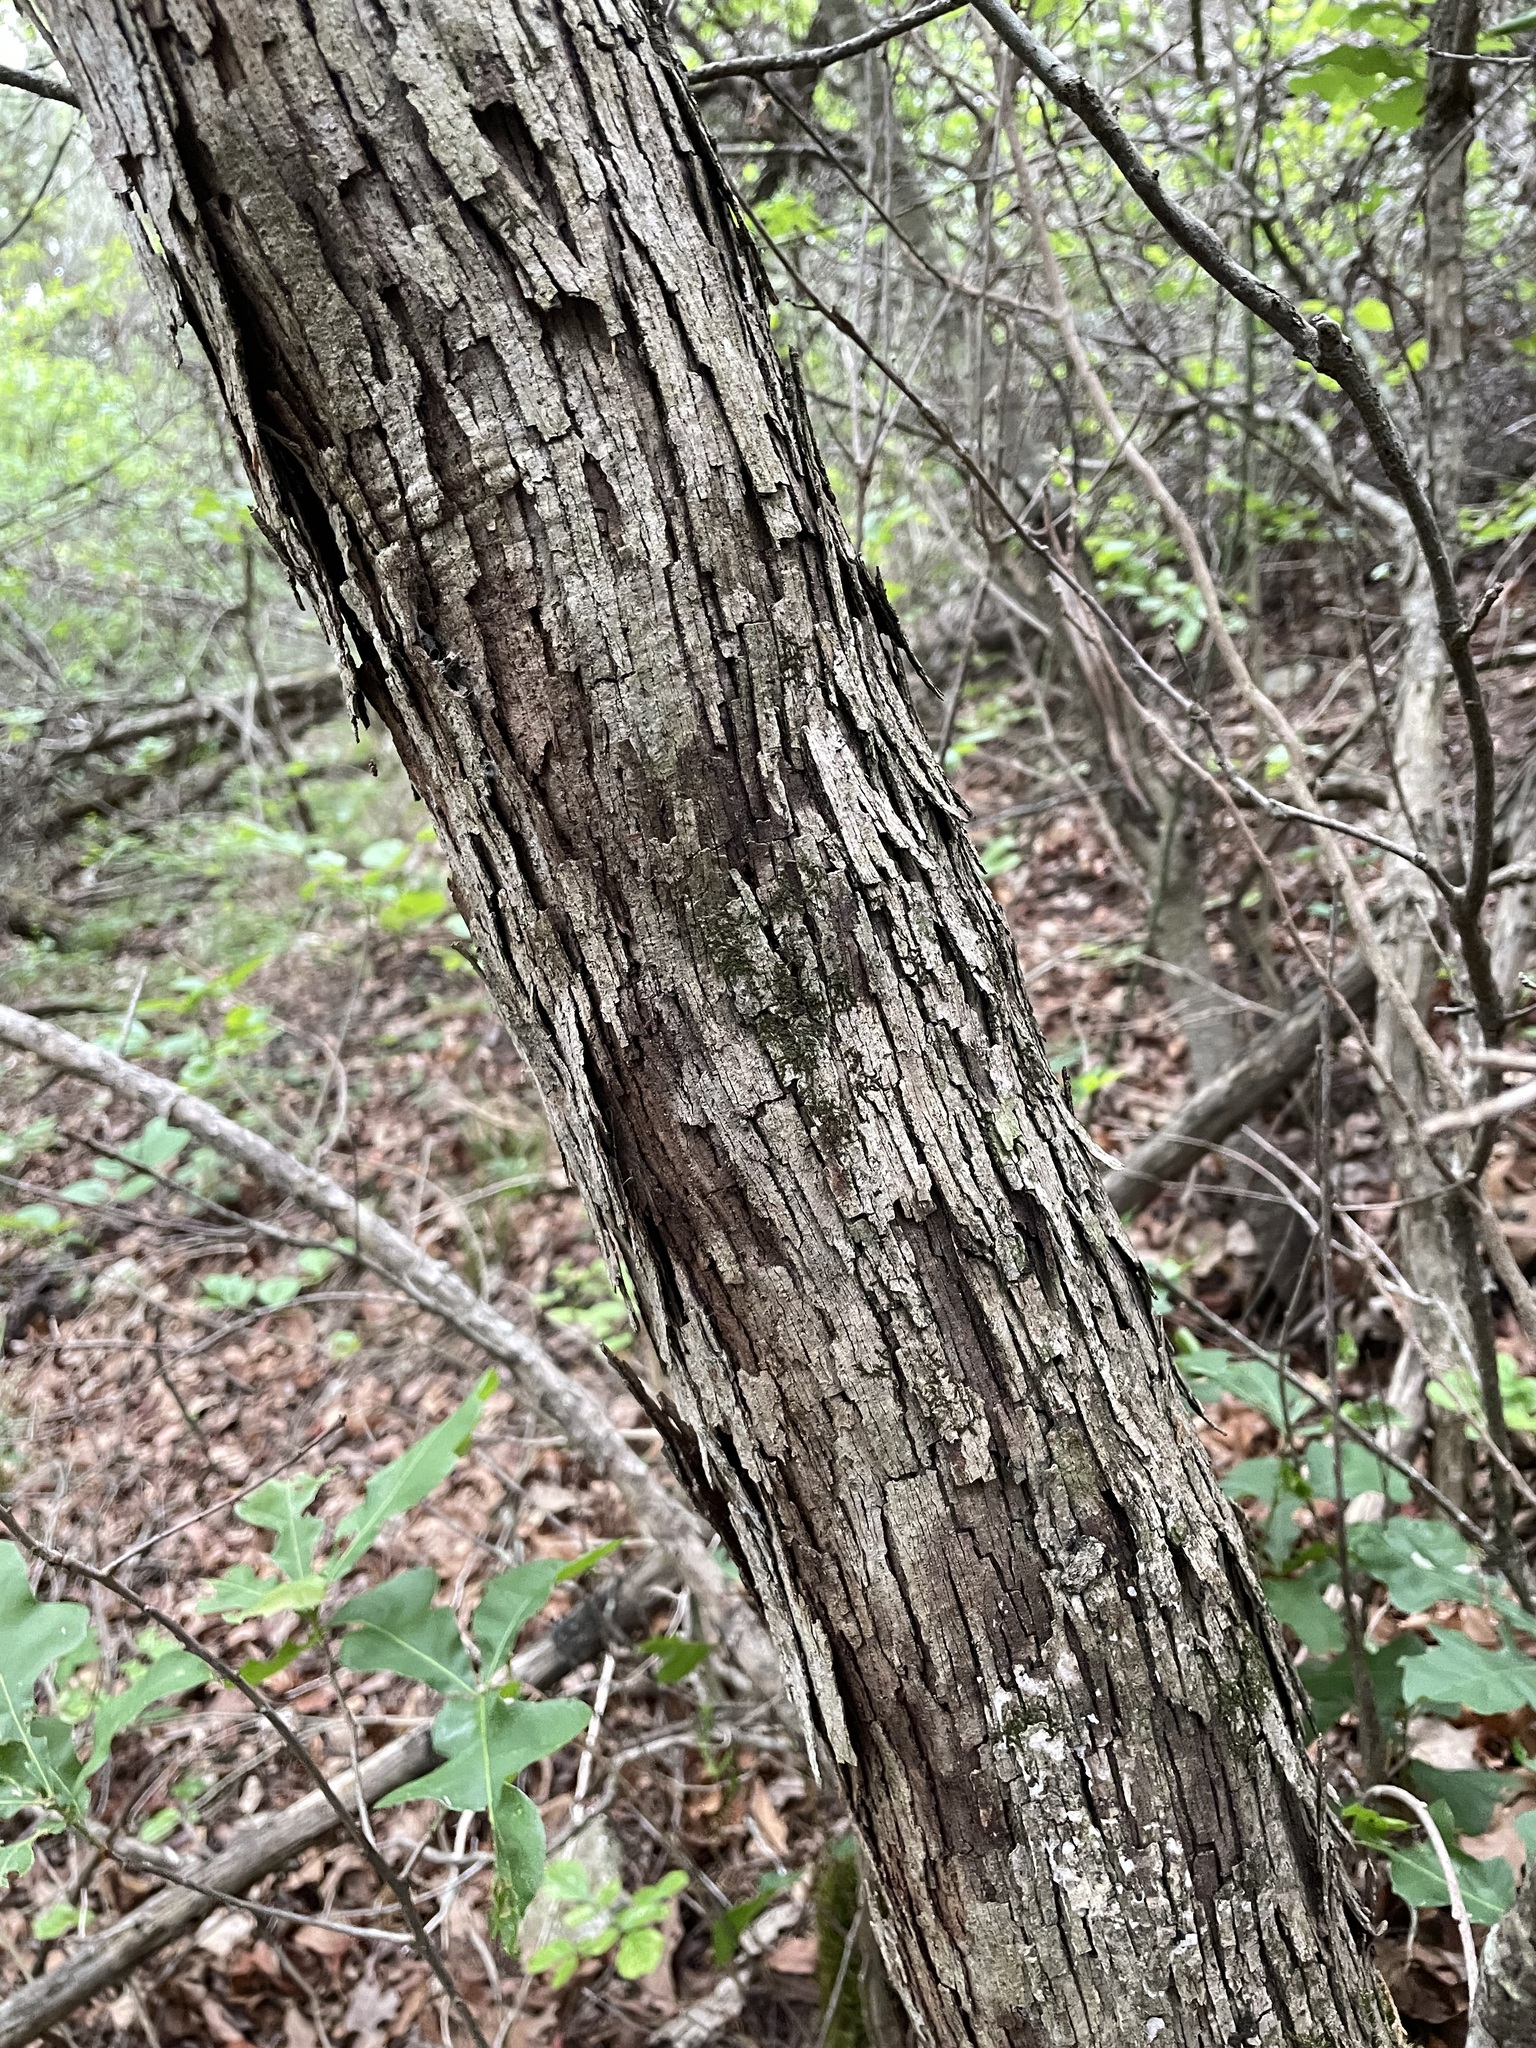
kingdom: Plantae
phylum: Tracheophyta
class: Magnoliopsida
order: Fagales
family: Fagaceae
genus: Quercus
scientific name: Quercus sinuata
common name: Durand oak
